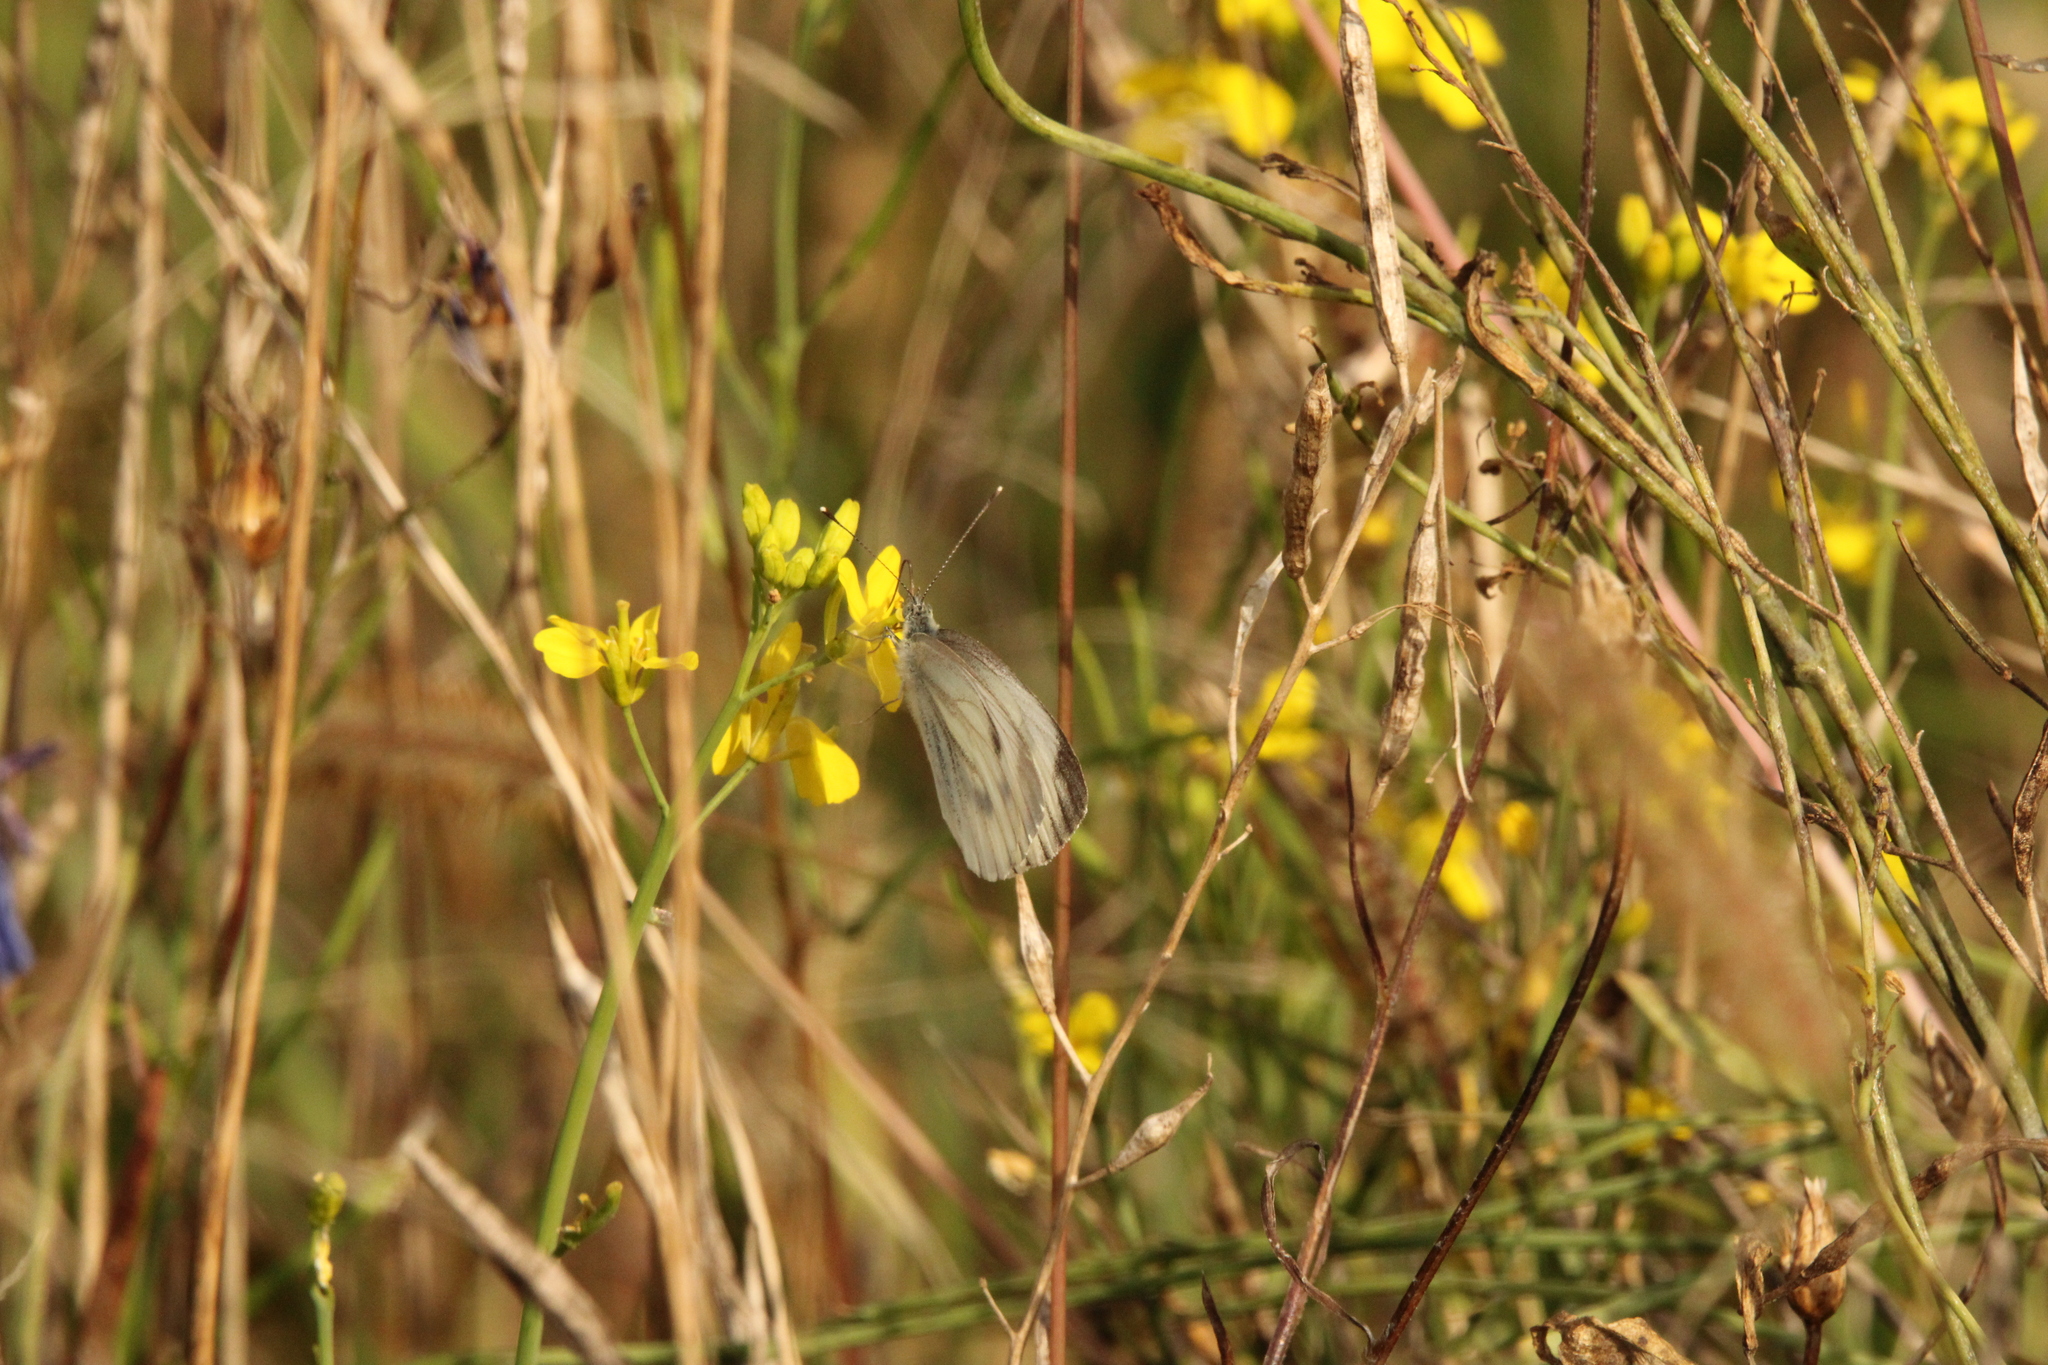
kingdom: Animalia
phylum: Arthropoda
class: Insecta
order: Lepidoptera
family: Pieridae
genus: Pieris
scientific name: Pieris napi
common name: Green-veined white
